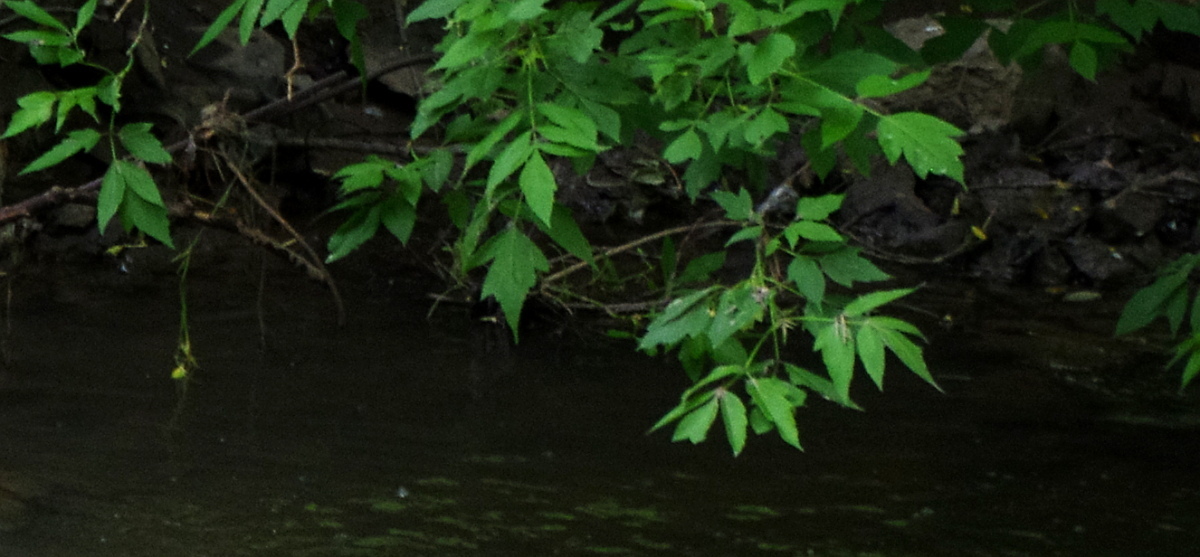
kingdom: Plantae
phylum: Tracheophyta
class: Magnoliopsida
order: Sapindales
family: Sapindaceae
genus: Acer
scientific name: Acer negundo
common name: Ashleaf maple
